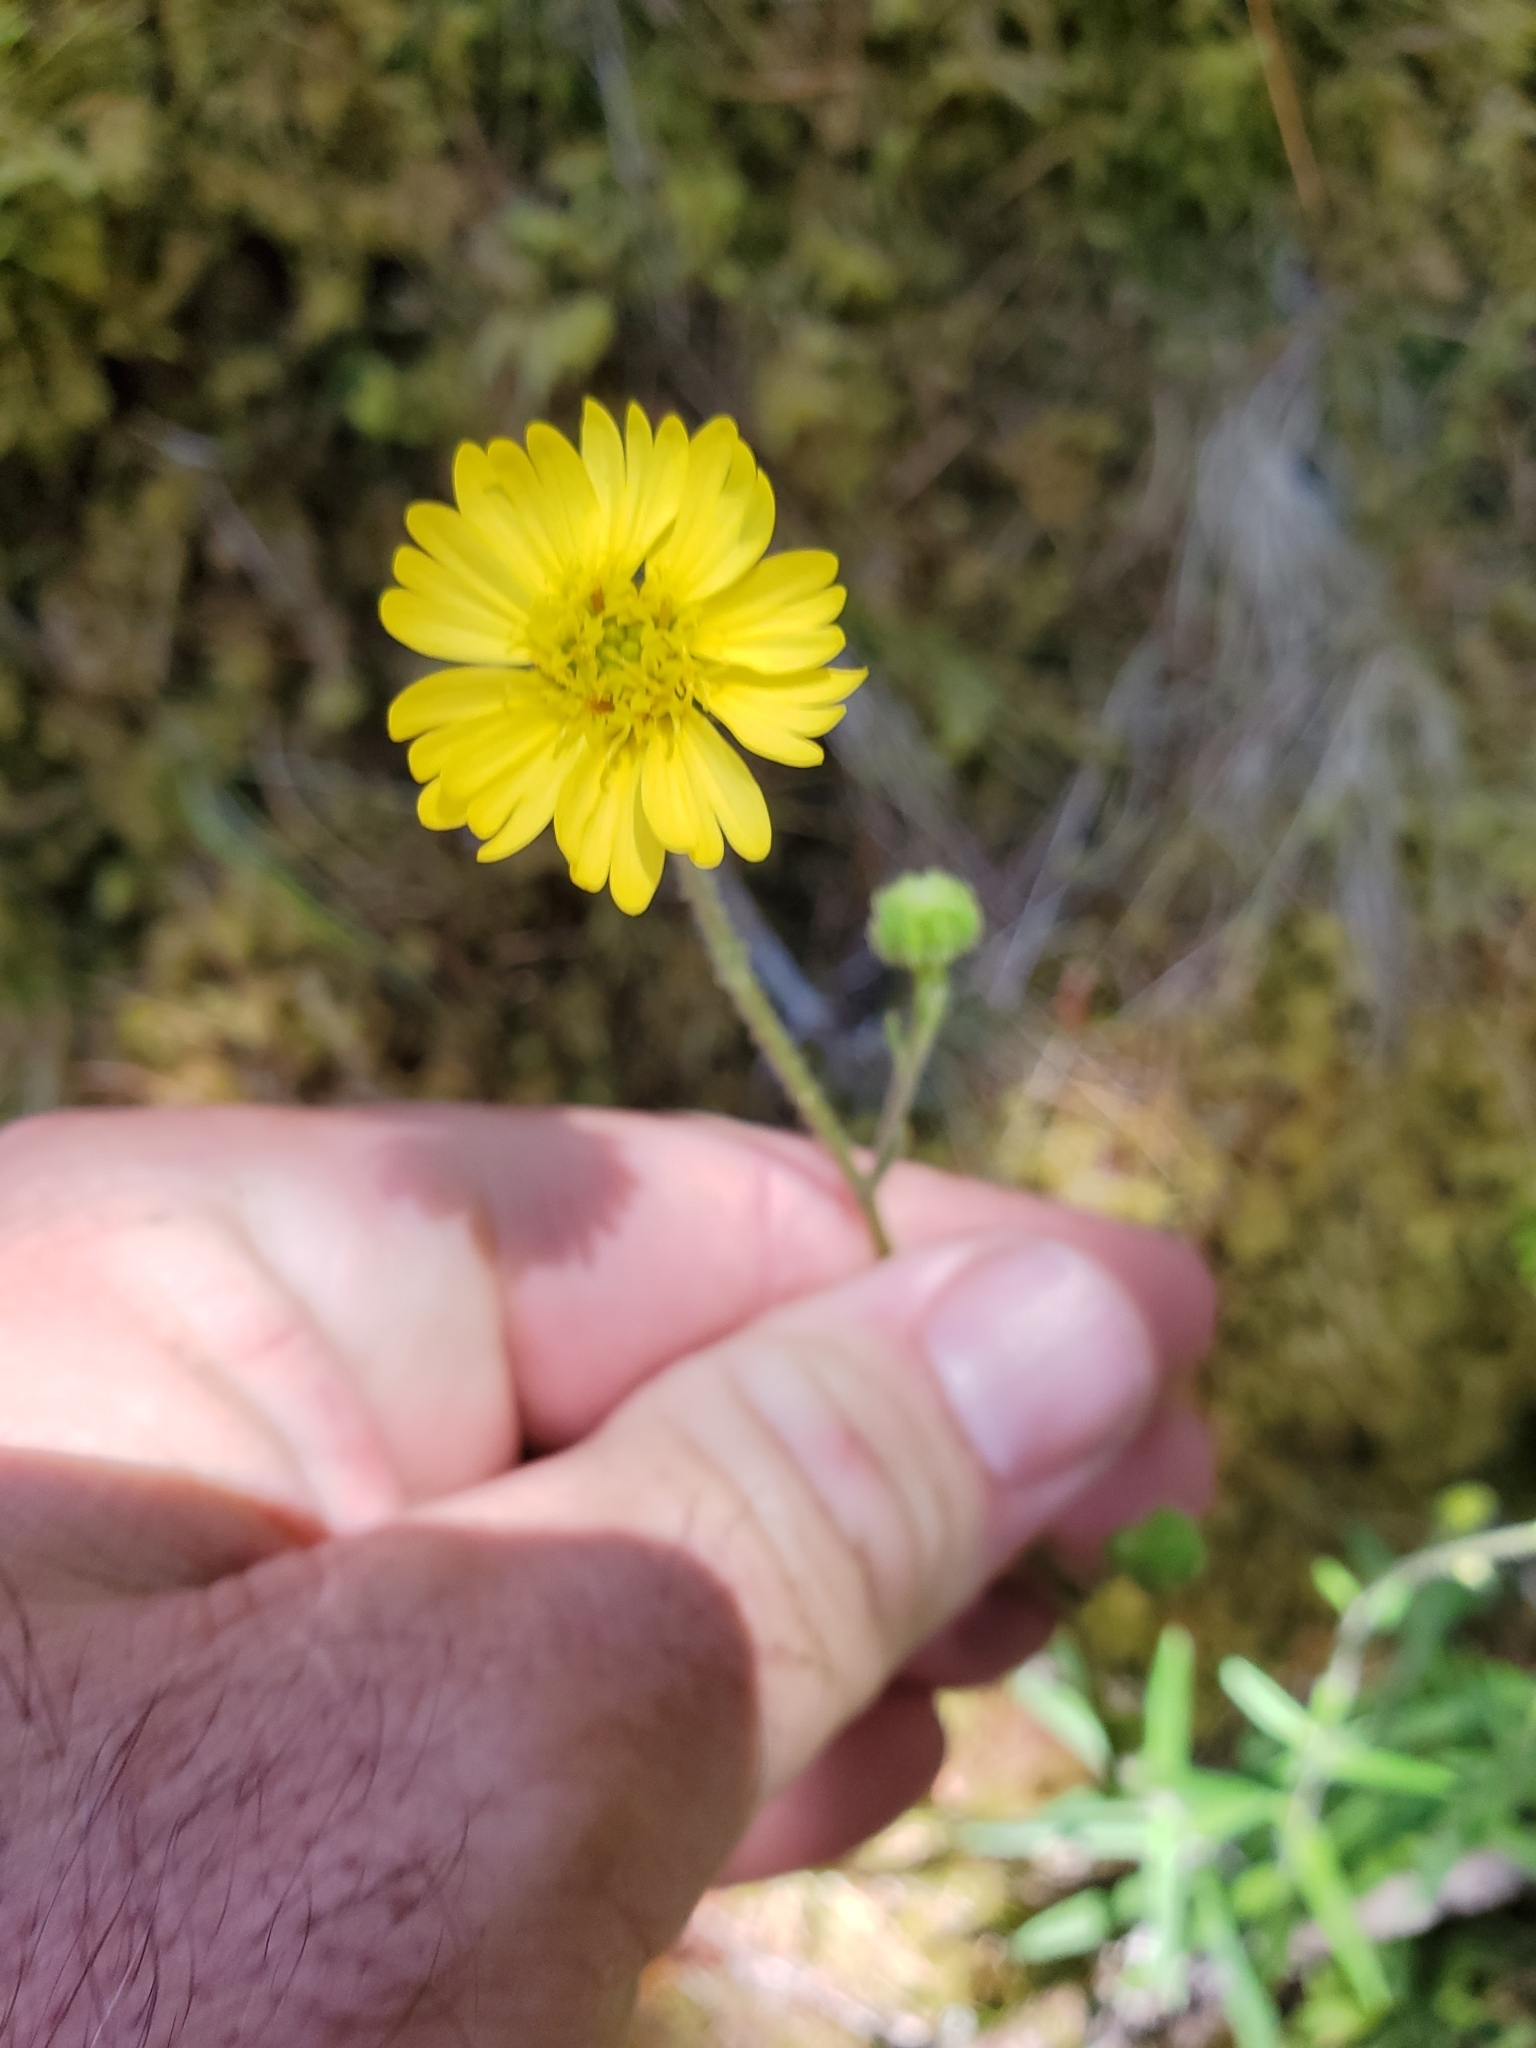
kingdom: Plantae
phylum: Tracheophyta
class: Magnoliopsida
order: Asterales
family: Asteraceae
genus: Anisocarpus
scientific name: Anisocarpus madioides
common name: Woodland madia
